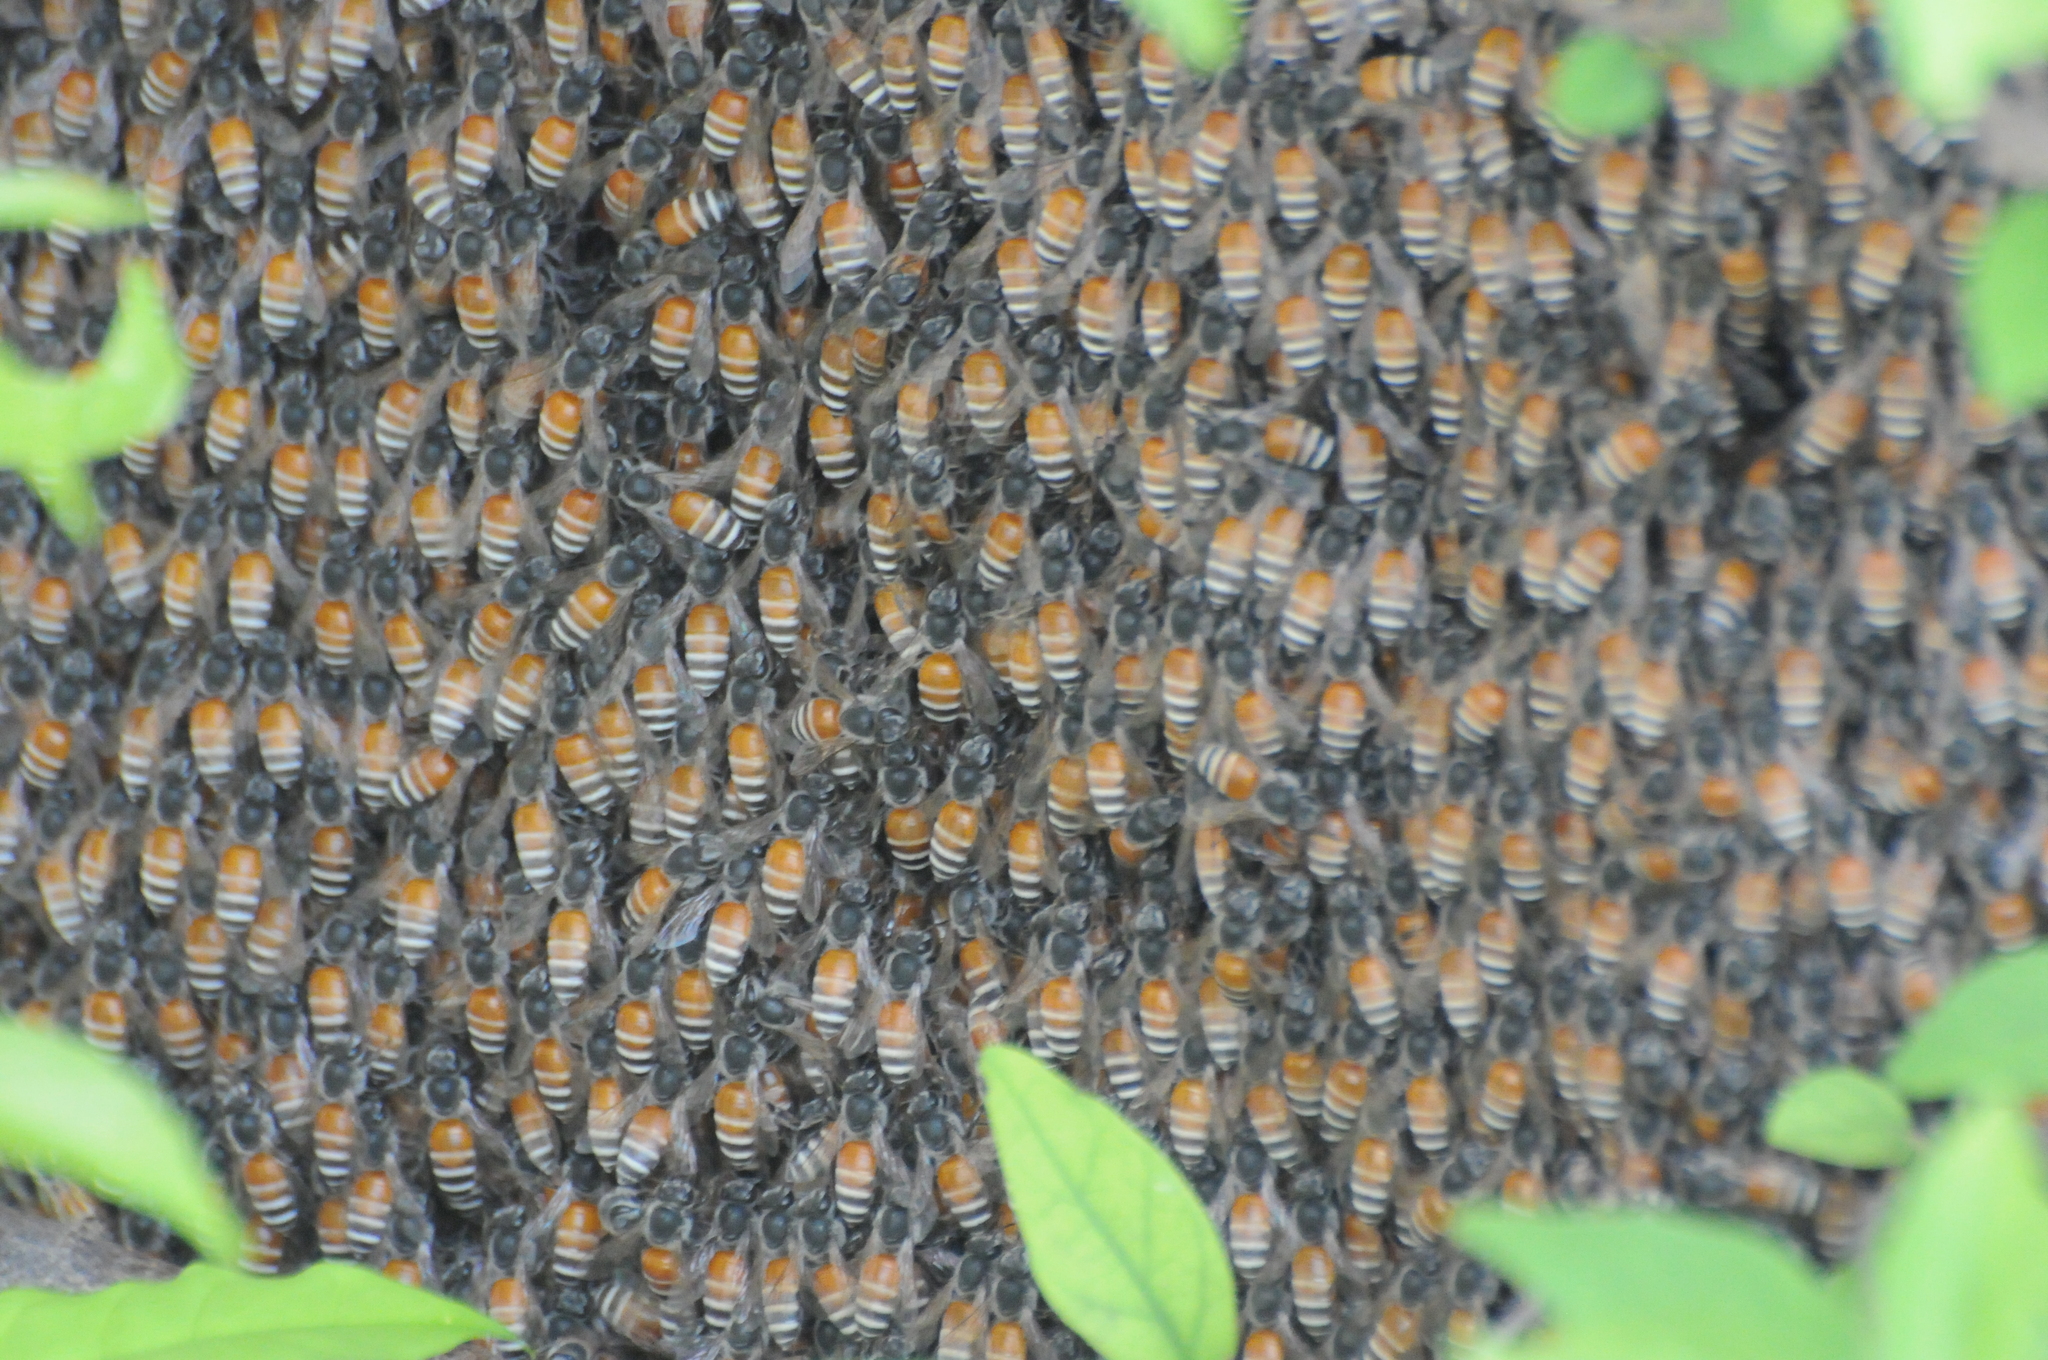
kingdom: Animalia
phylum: Arthropoda
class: Insecta
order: Hymenoptera
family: Apidae
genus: Apis
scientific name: Apis florea
